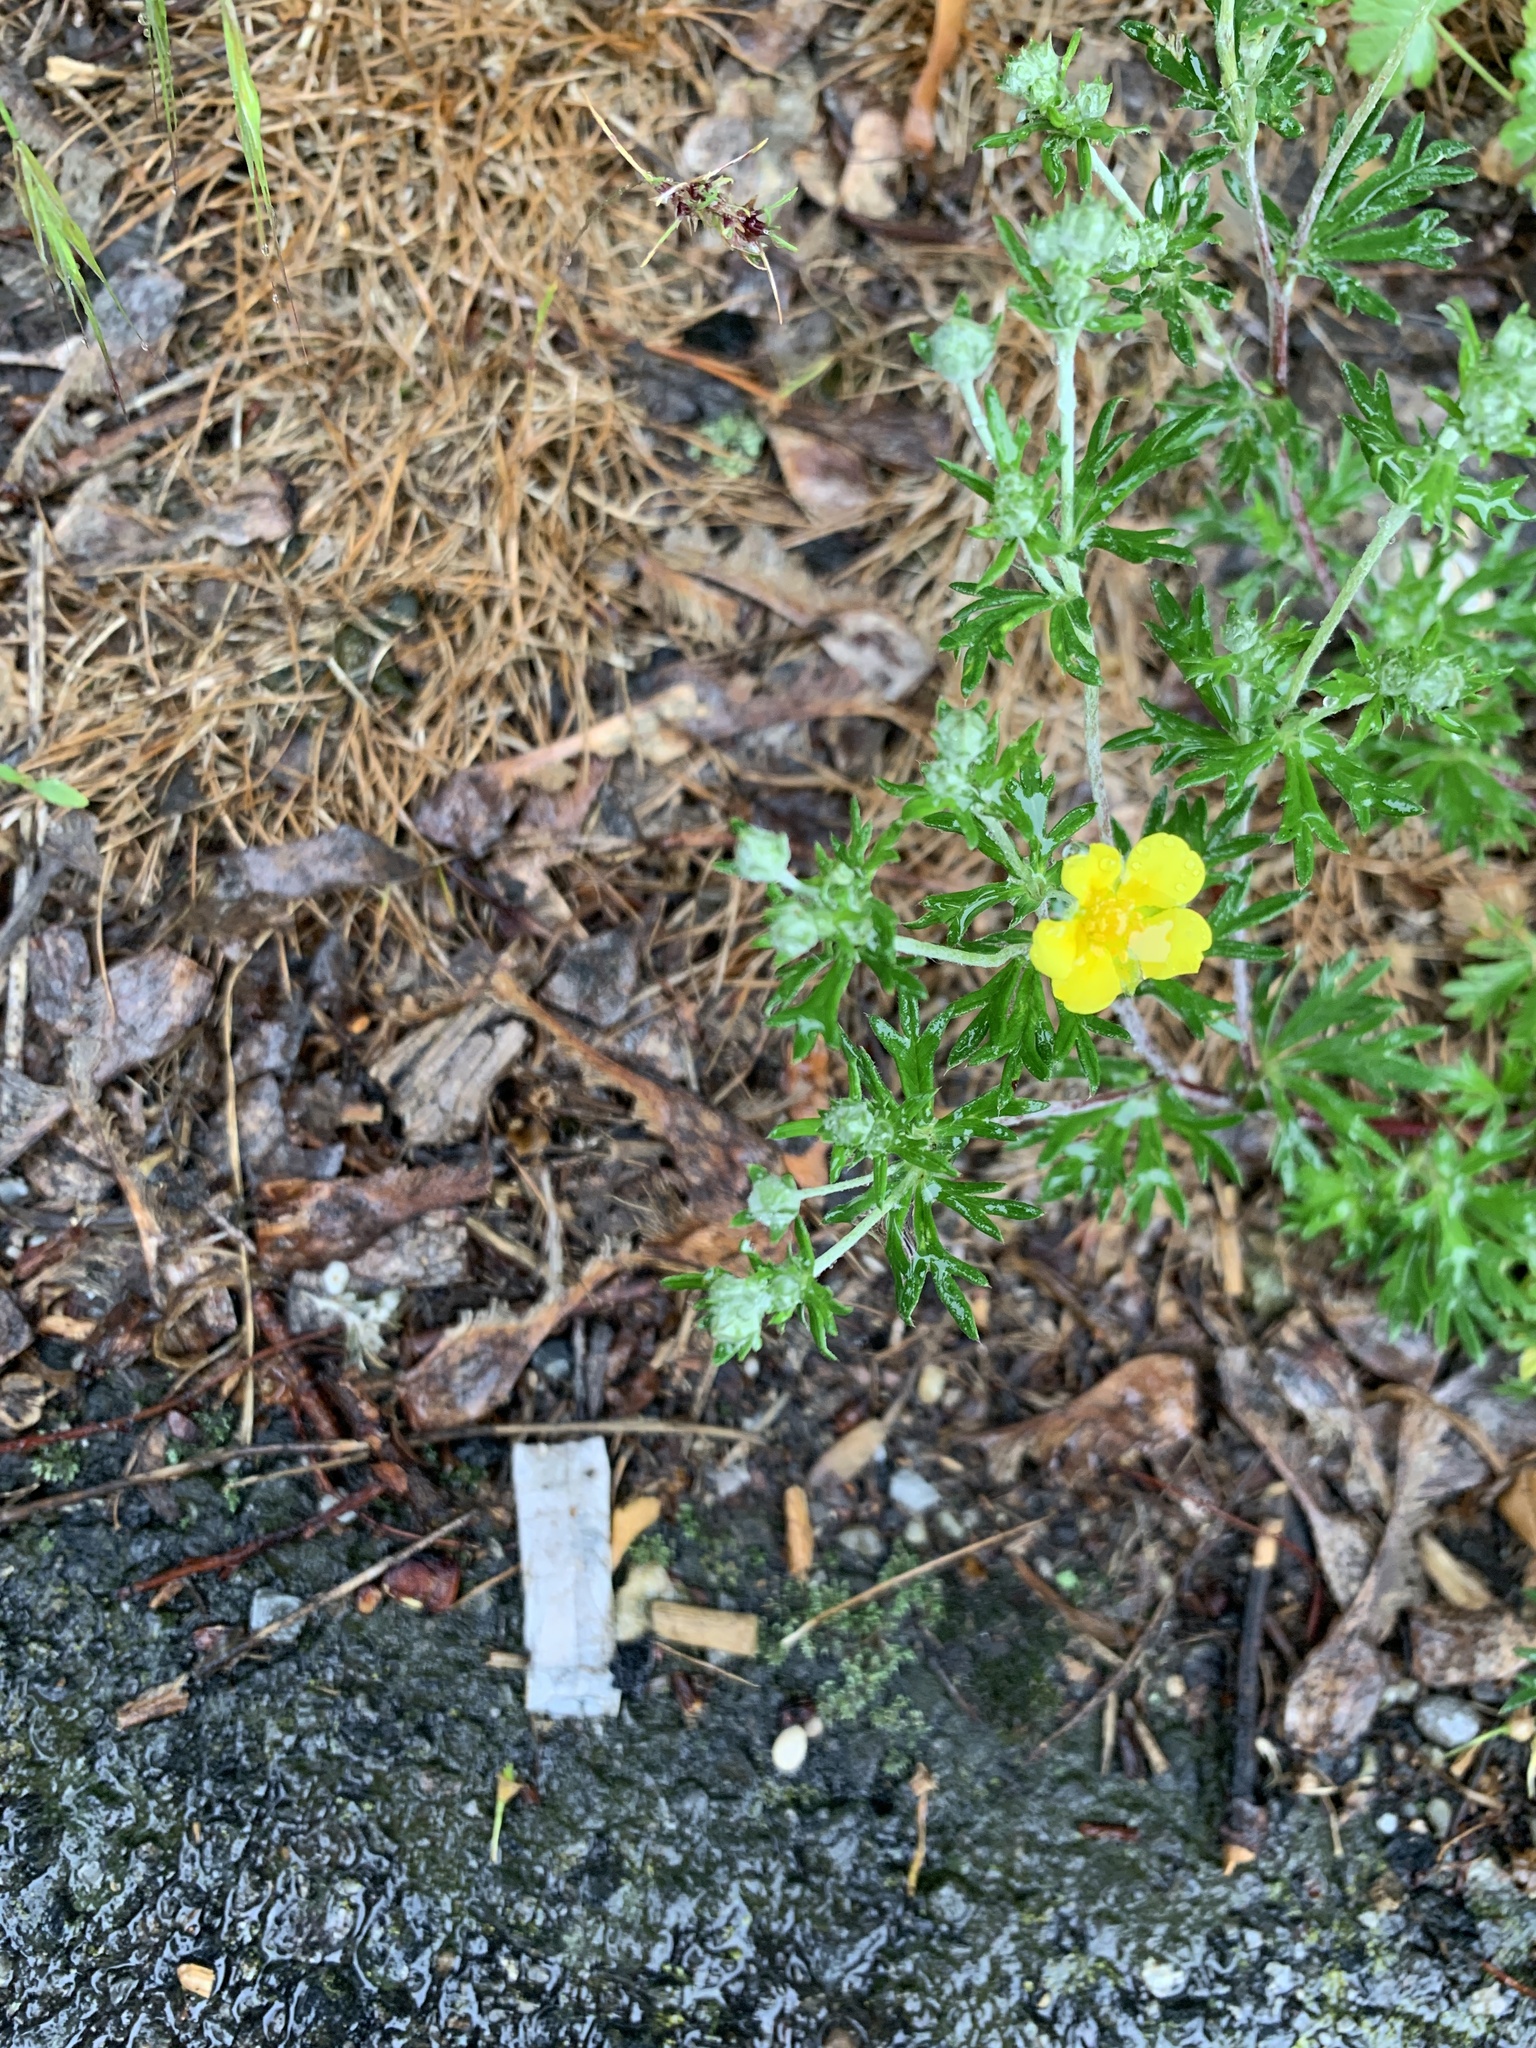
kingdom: Plantae
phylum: Tracheophyta
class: Magnoliopsida
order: Rosales
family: Rosaceae
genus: Potentilla
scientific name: Potentilla argentea
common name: Hoary cinquefoil
